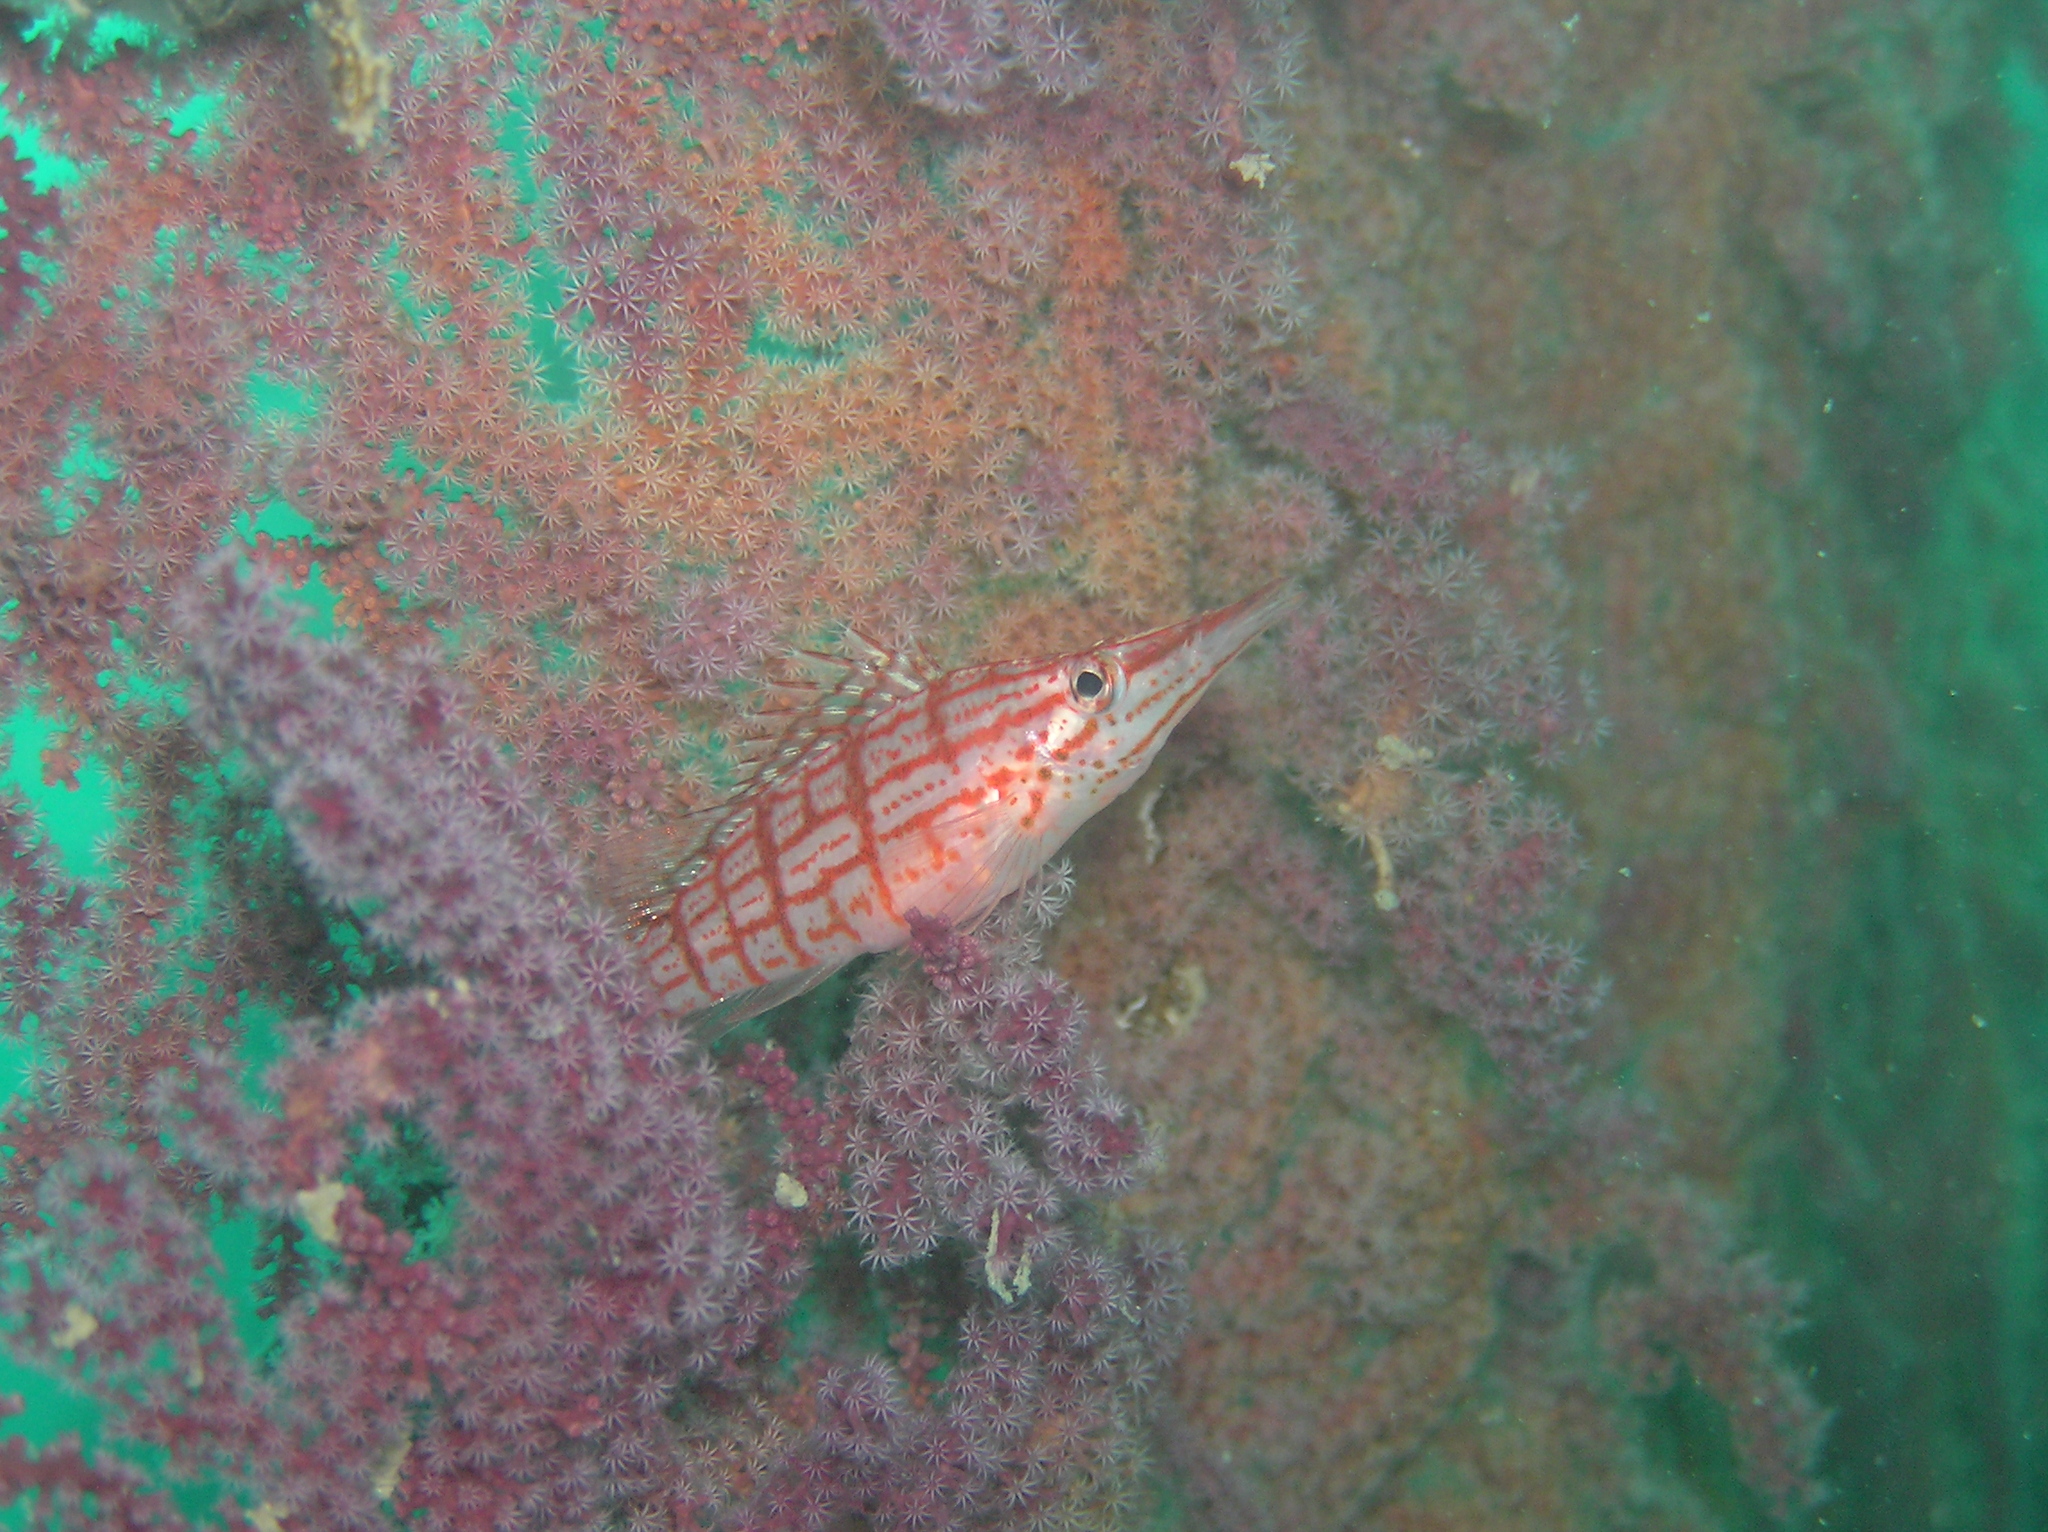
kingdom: Animalia
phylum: Chordata
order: Perciformes
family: Cirrhitidae
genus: Oxycirrhites
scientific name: Oxycirrhites typus
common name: Longnose hawkfish
